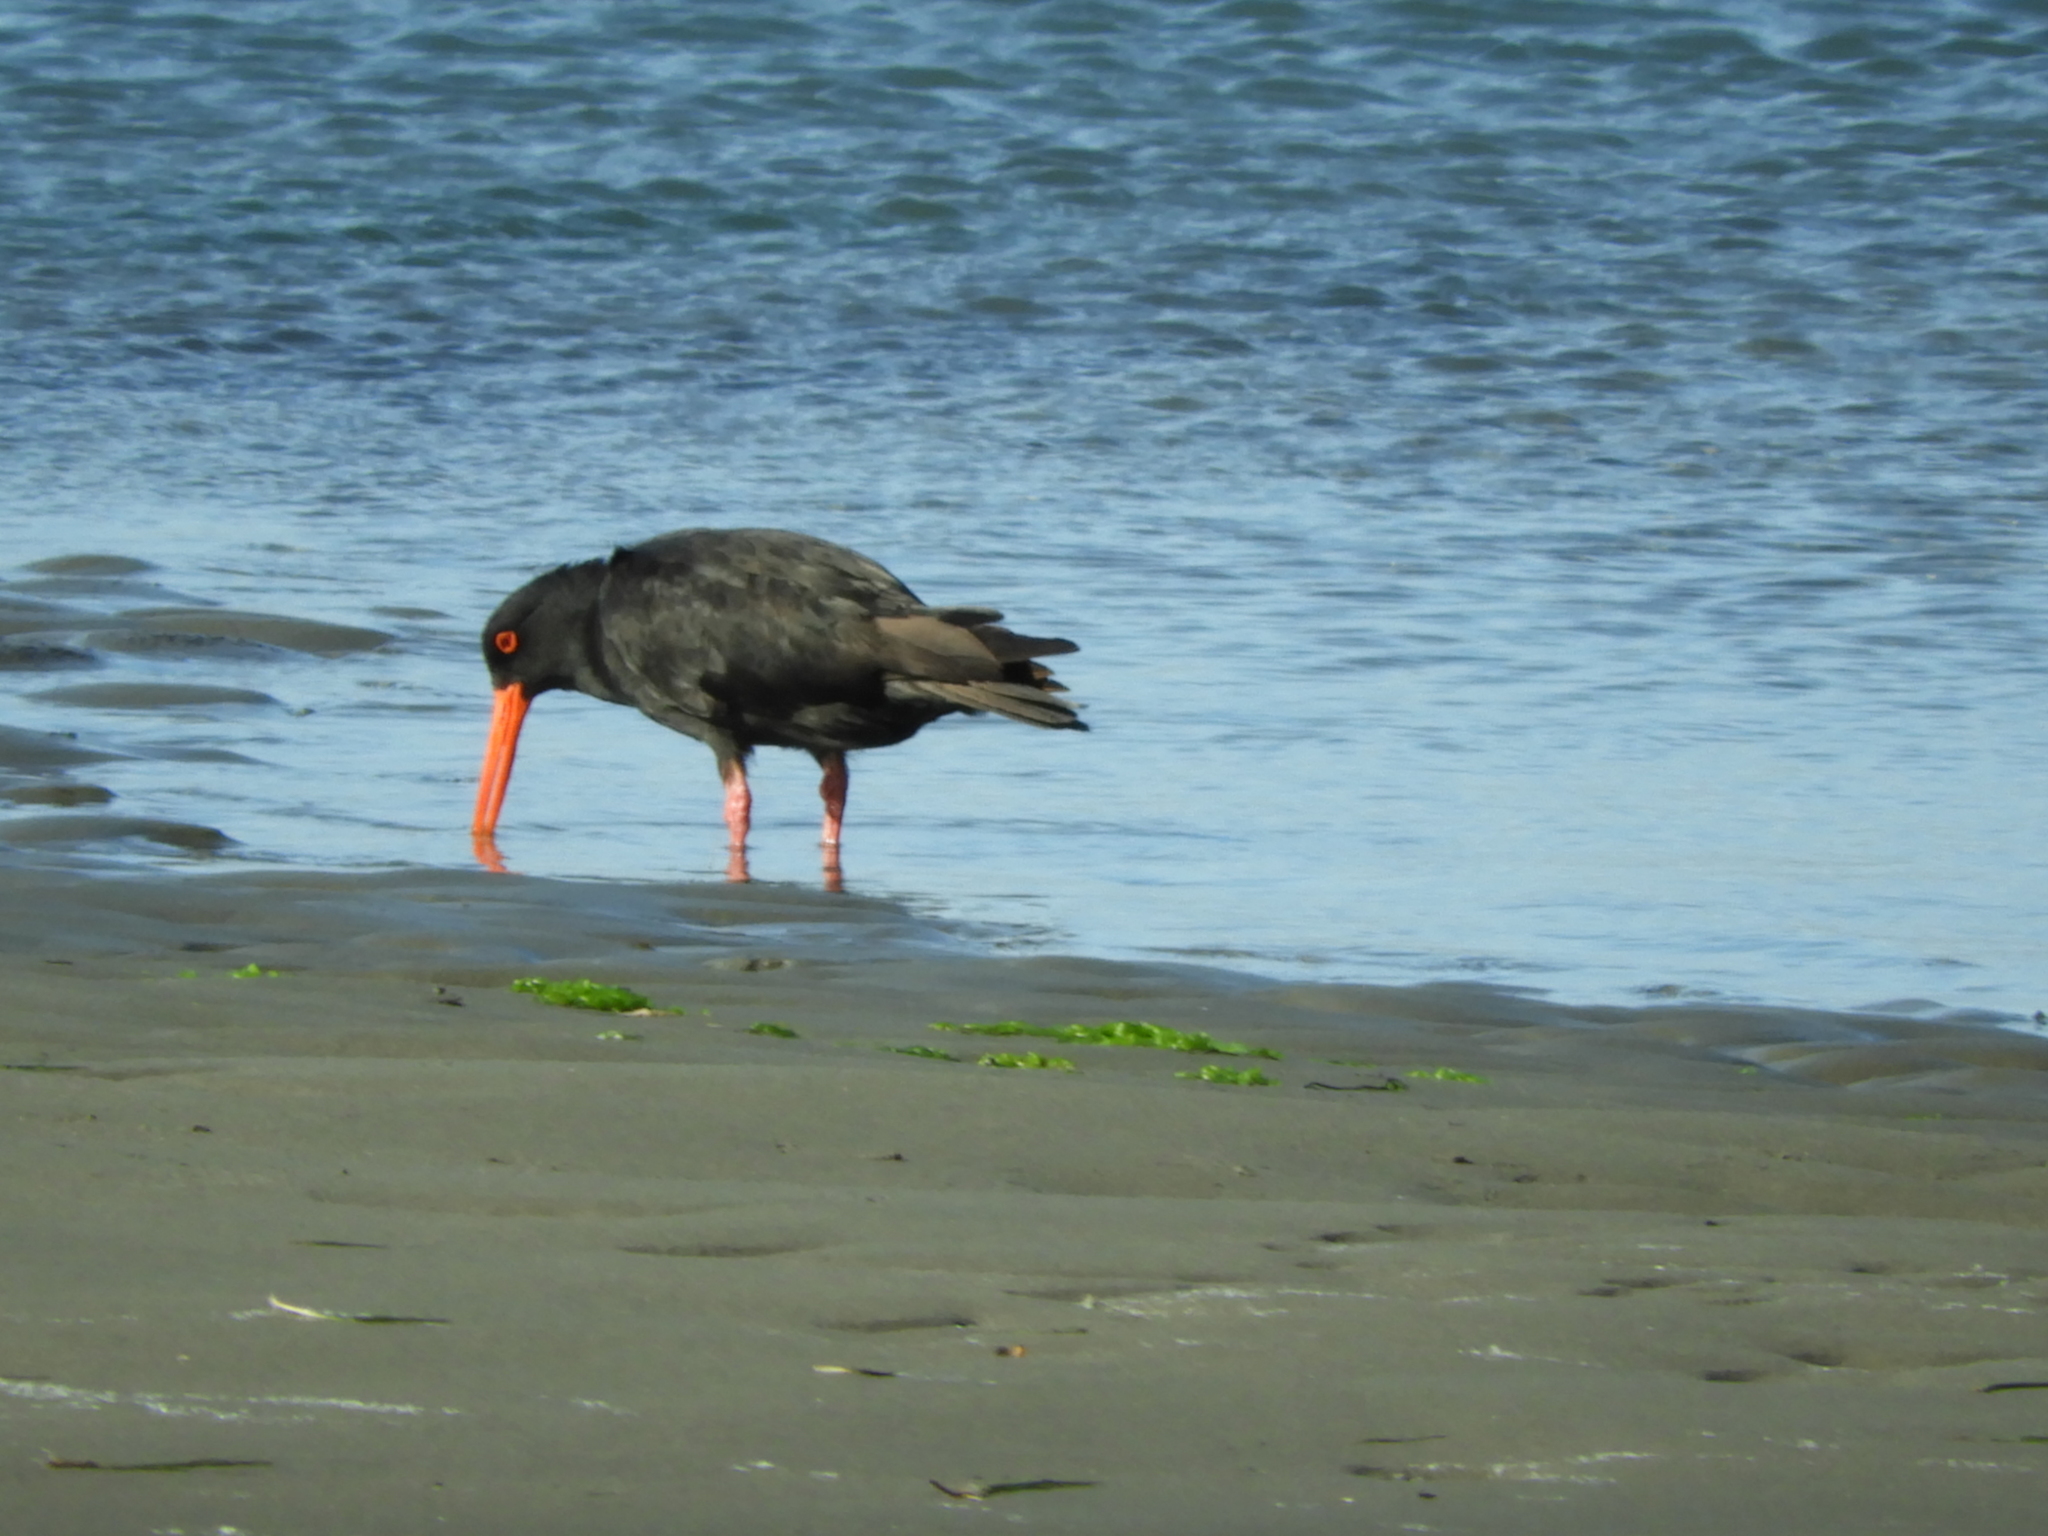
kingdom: Animalia
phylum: Chordata
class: Aves
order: Charadriiformes
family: Haematopodidae
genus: Haematopus
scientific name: Haematopus unicolor
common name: Variable oystercatcher
